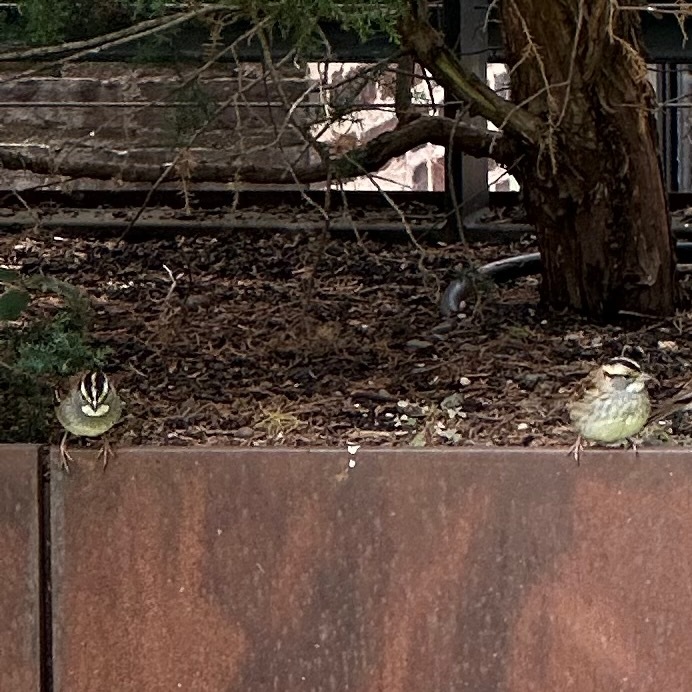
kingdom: Animalia
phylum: Chordata
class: Aves
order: Passeriformes
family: Passerellidae
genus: Zonotrichia
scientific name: Zonotrichia albicollis
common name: White-throated sparrow
